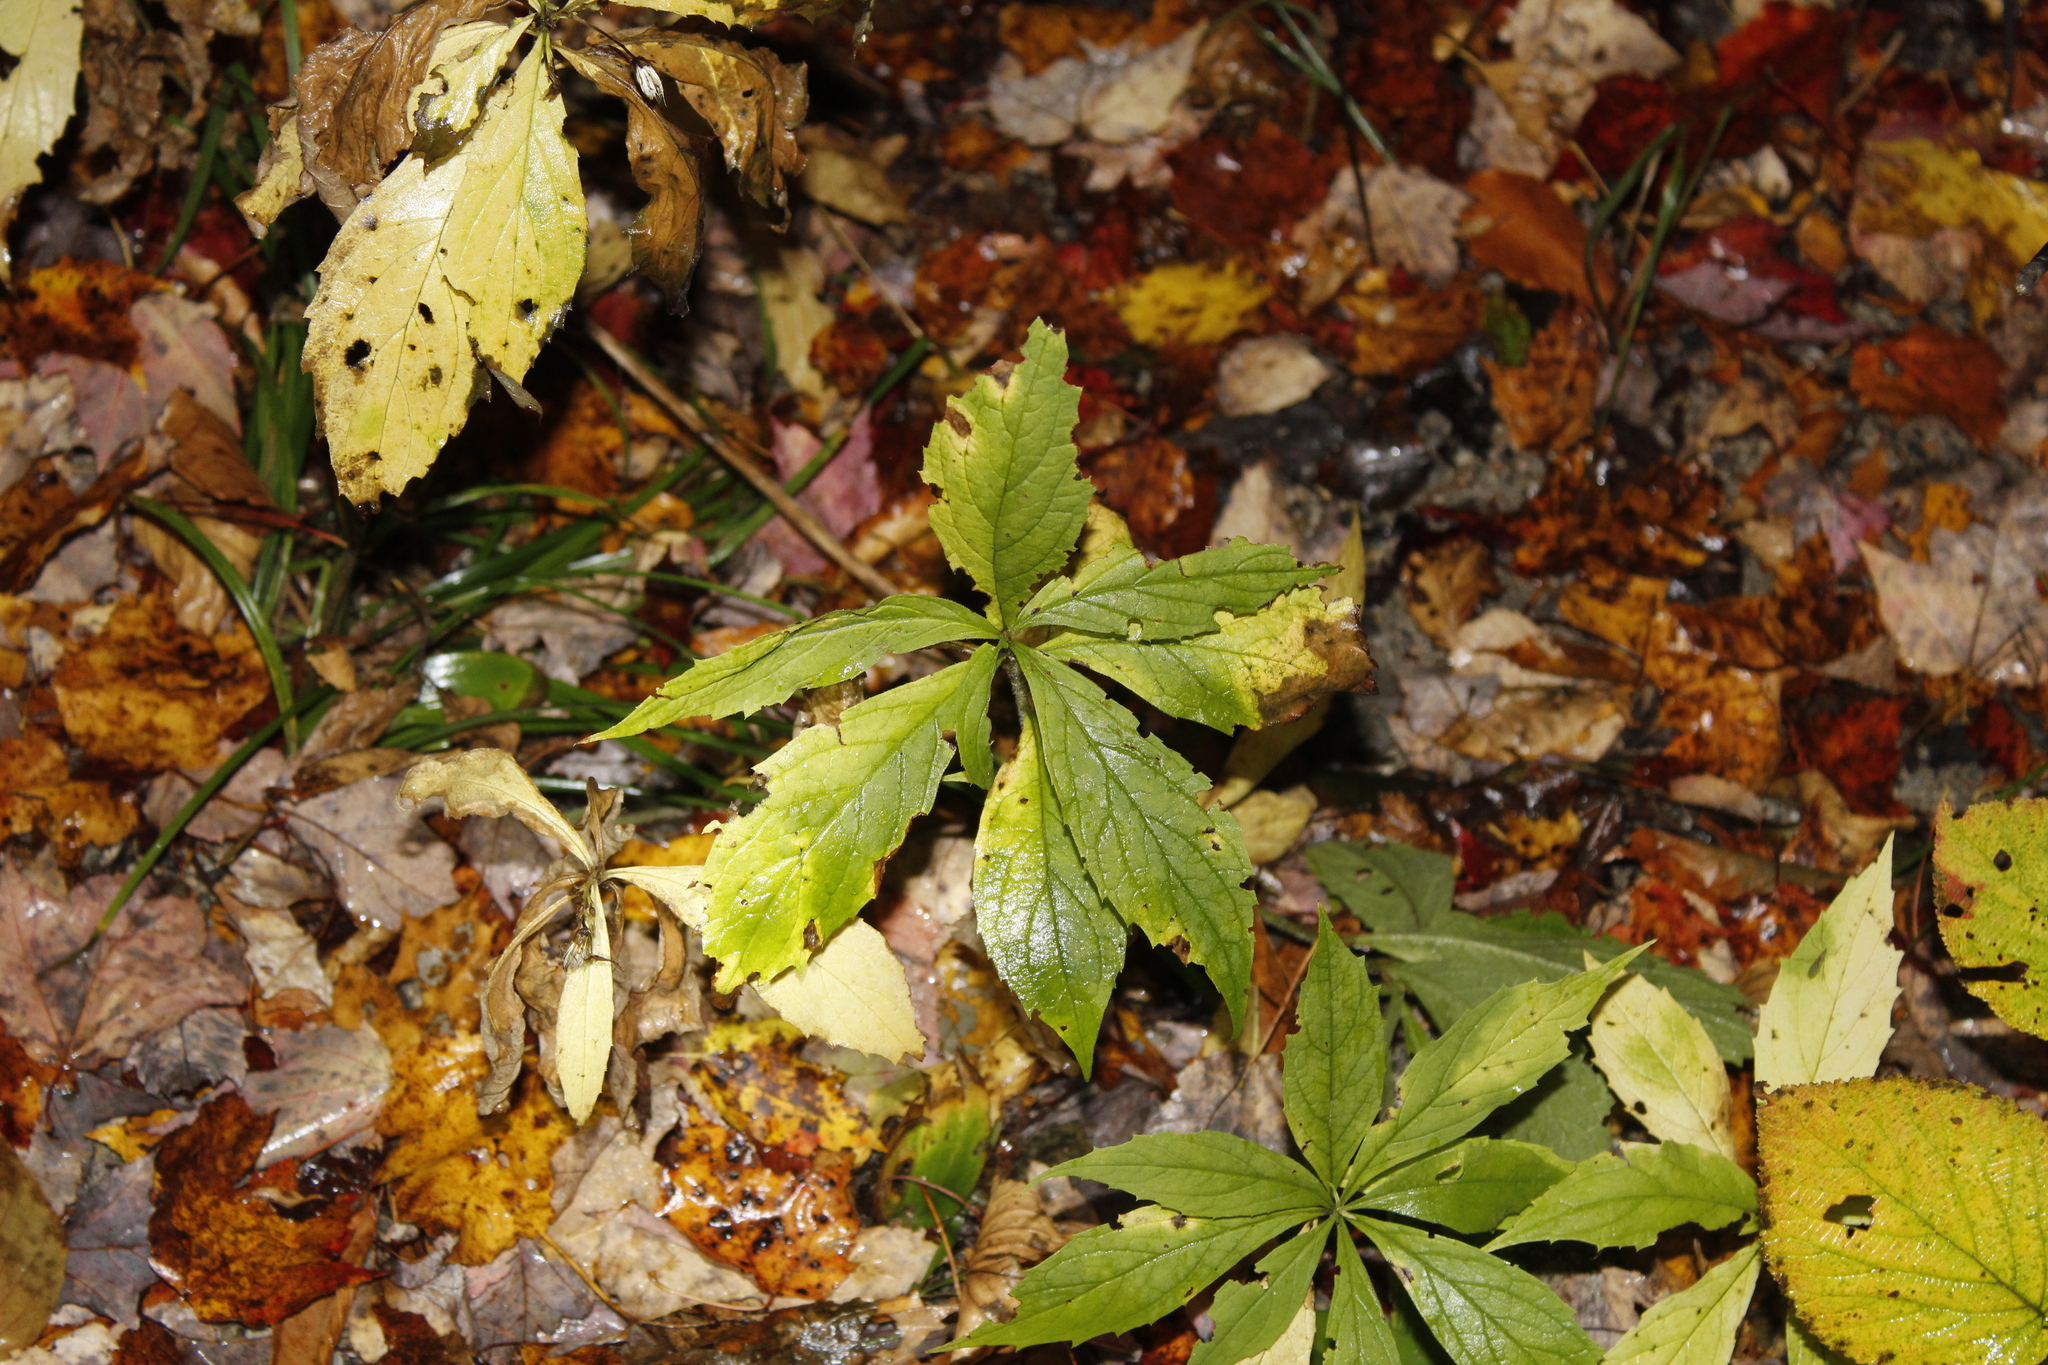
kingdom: Plantae
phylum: Tracheophyta
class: Magnoliopsida
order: Asterales
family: Asteraceae
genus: Oclemena
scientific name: Oclemena acuminata
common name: Mountain aster
